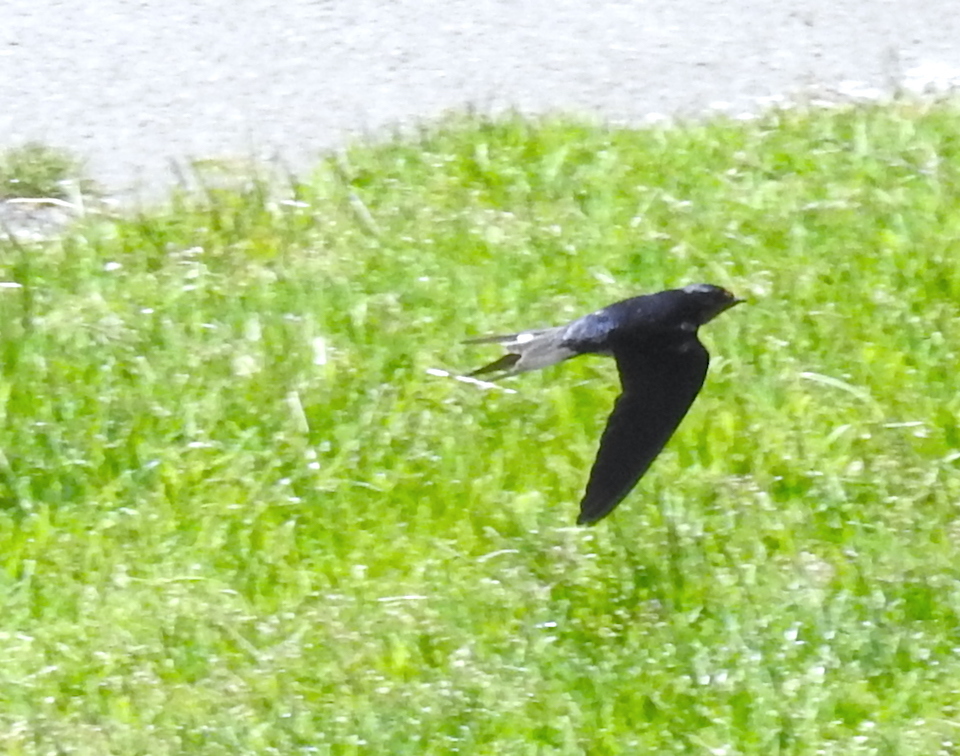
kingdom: Animalia
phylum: Chordata
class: Aves
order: Passeriformes
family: Hirundinidae
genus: Hirundo
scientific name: Hirundo rustica
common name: Barn swallow
